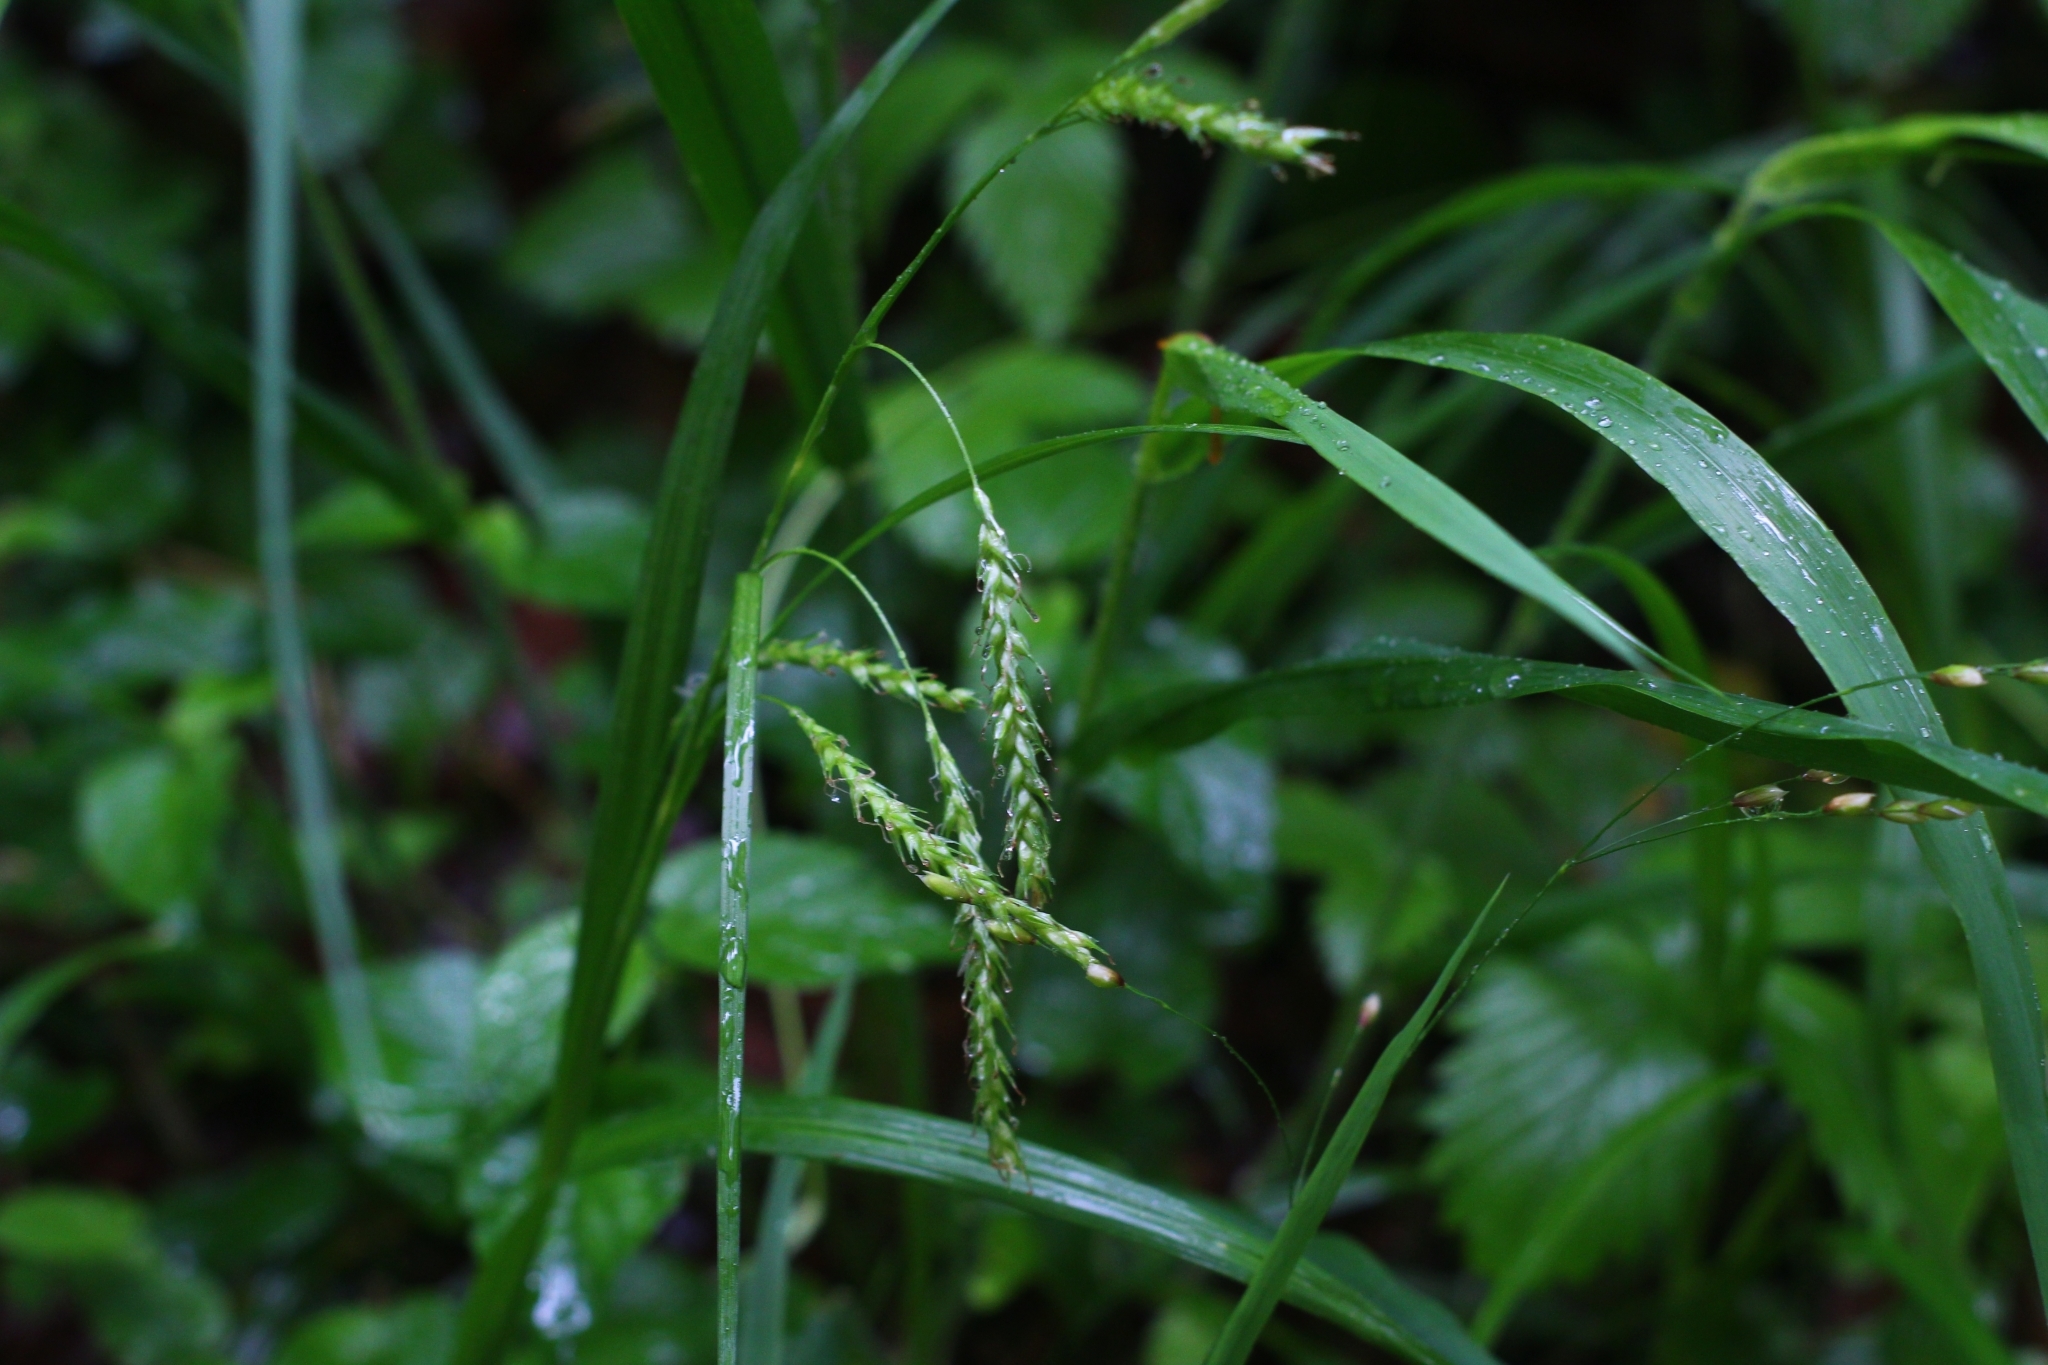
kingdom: Plantae
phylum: Tracheophyta
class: Liliopsida
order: Poales
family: Cyperaceae
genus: Carex
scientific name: Carex sylvatica
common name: Wood-sedge
